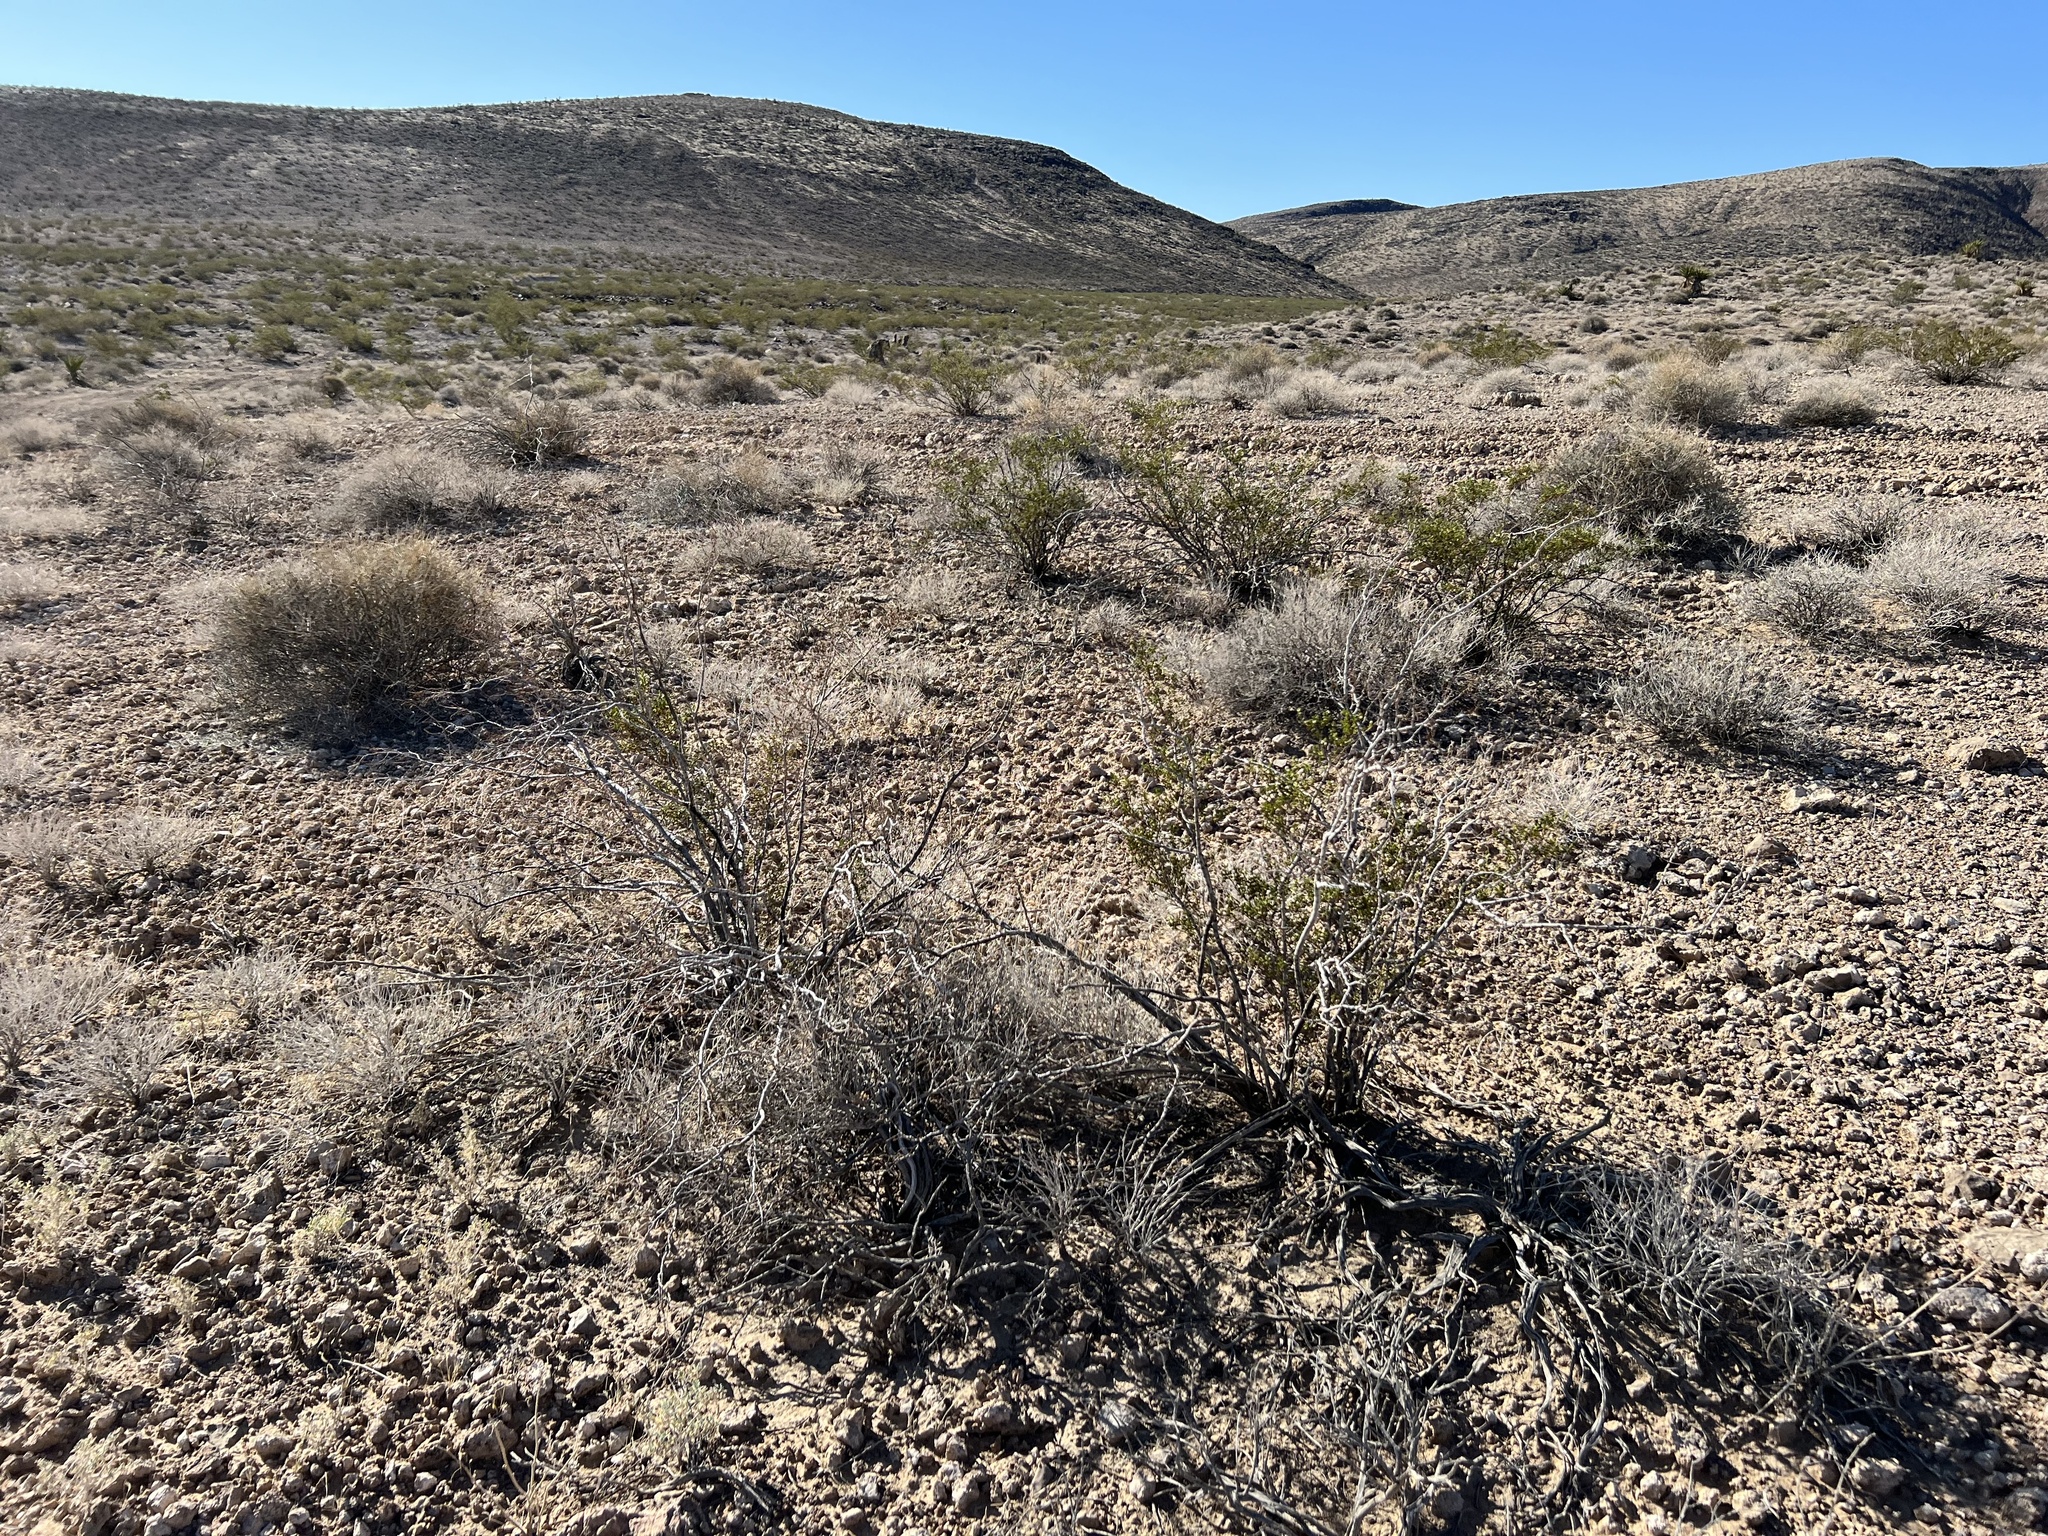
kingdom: Plantae
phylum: Tracheophyta
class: Magnoliopsida
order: Zygophyllales
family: Zygophyllaceae
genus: Larrea
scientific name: Larrea tridentata
